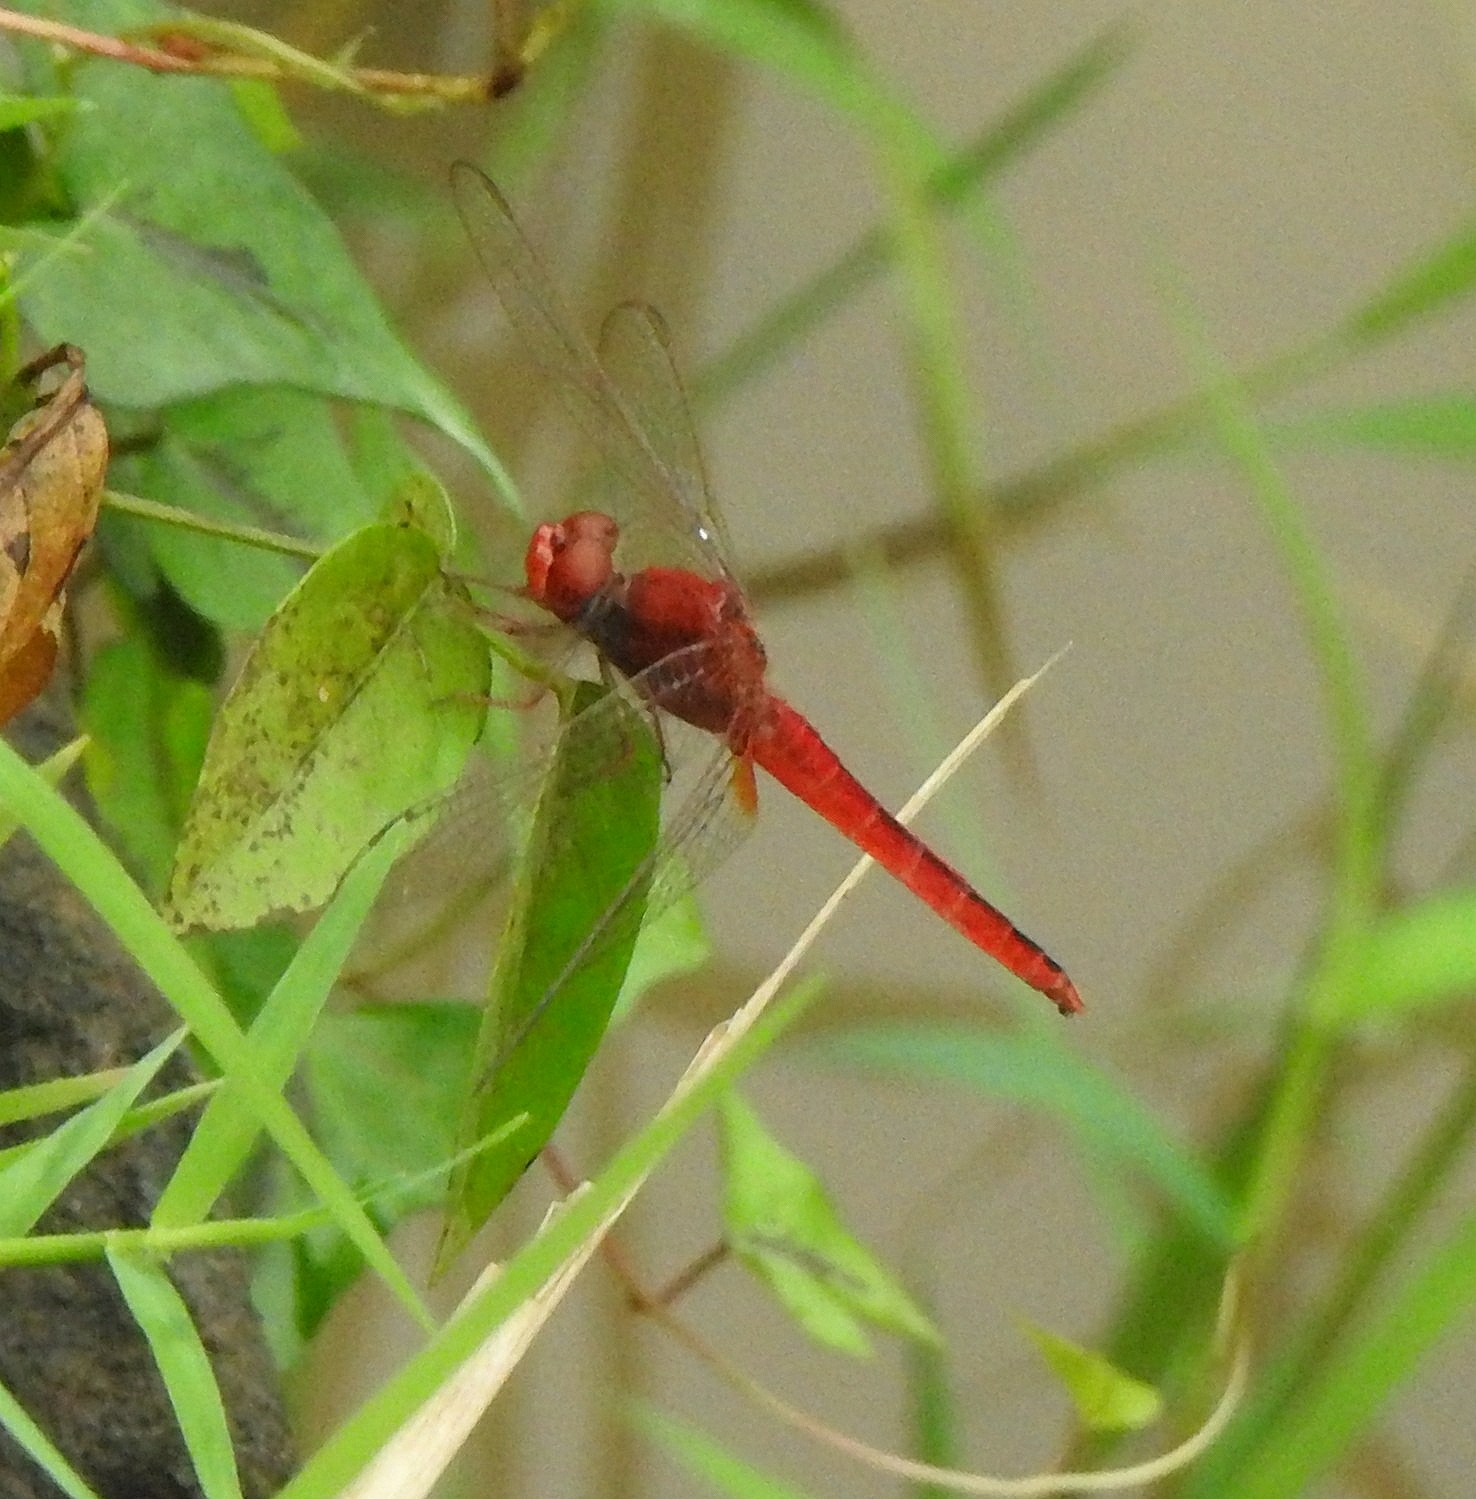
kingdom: Animalia
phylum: Arthropoda
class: Insecta
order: Odonata
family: Libellulidae
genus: Crocothemis
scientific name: Crocothemis servilia
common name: Scarlet skimmer
